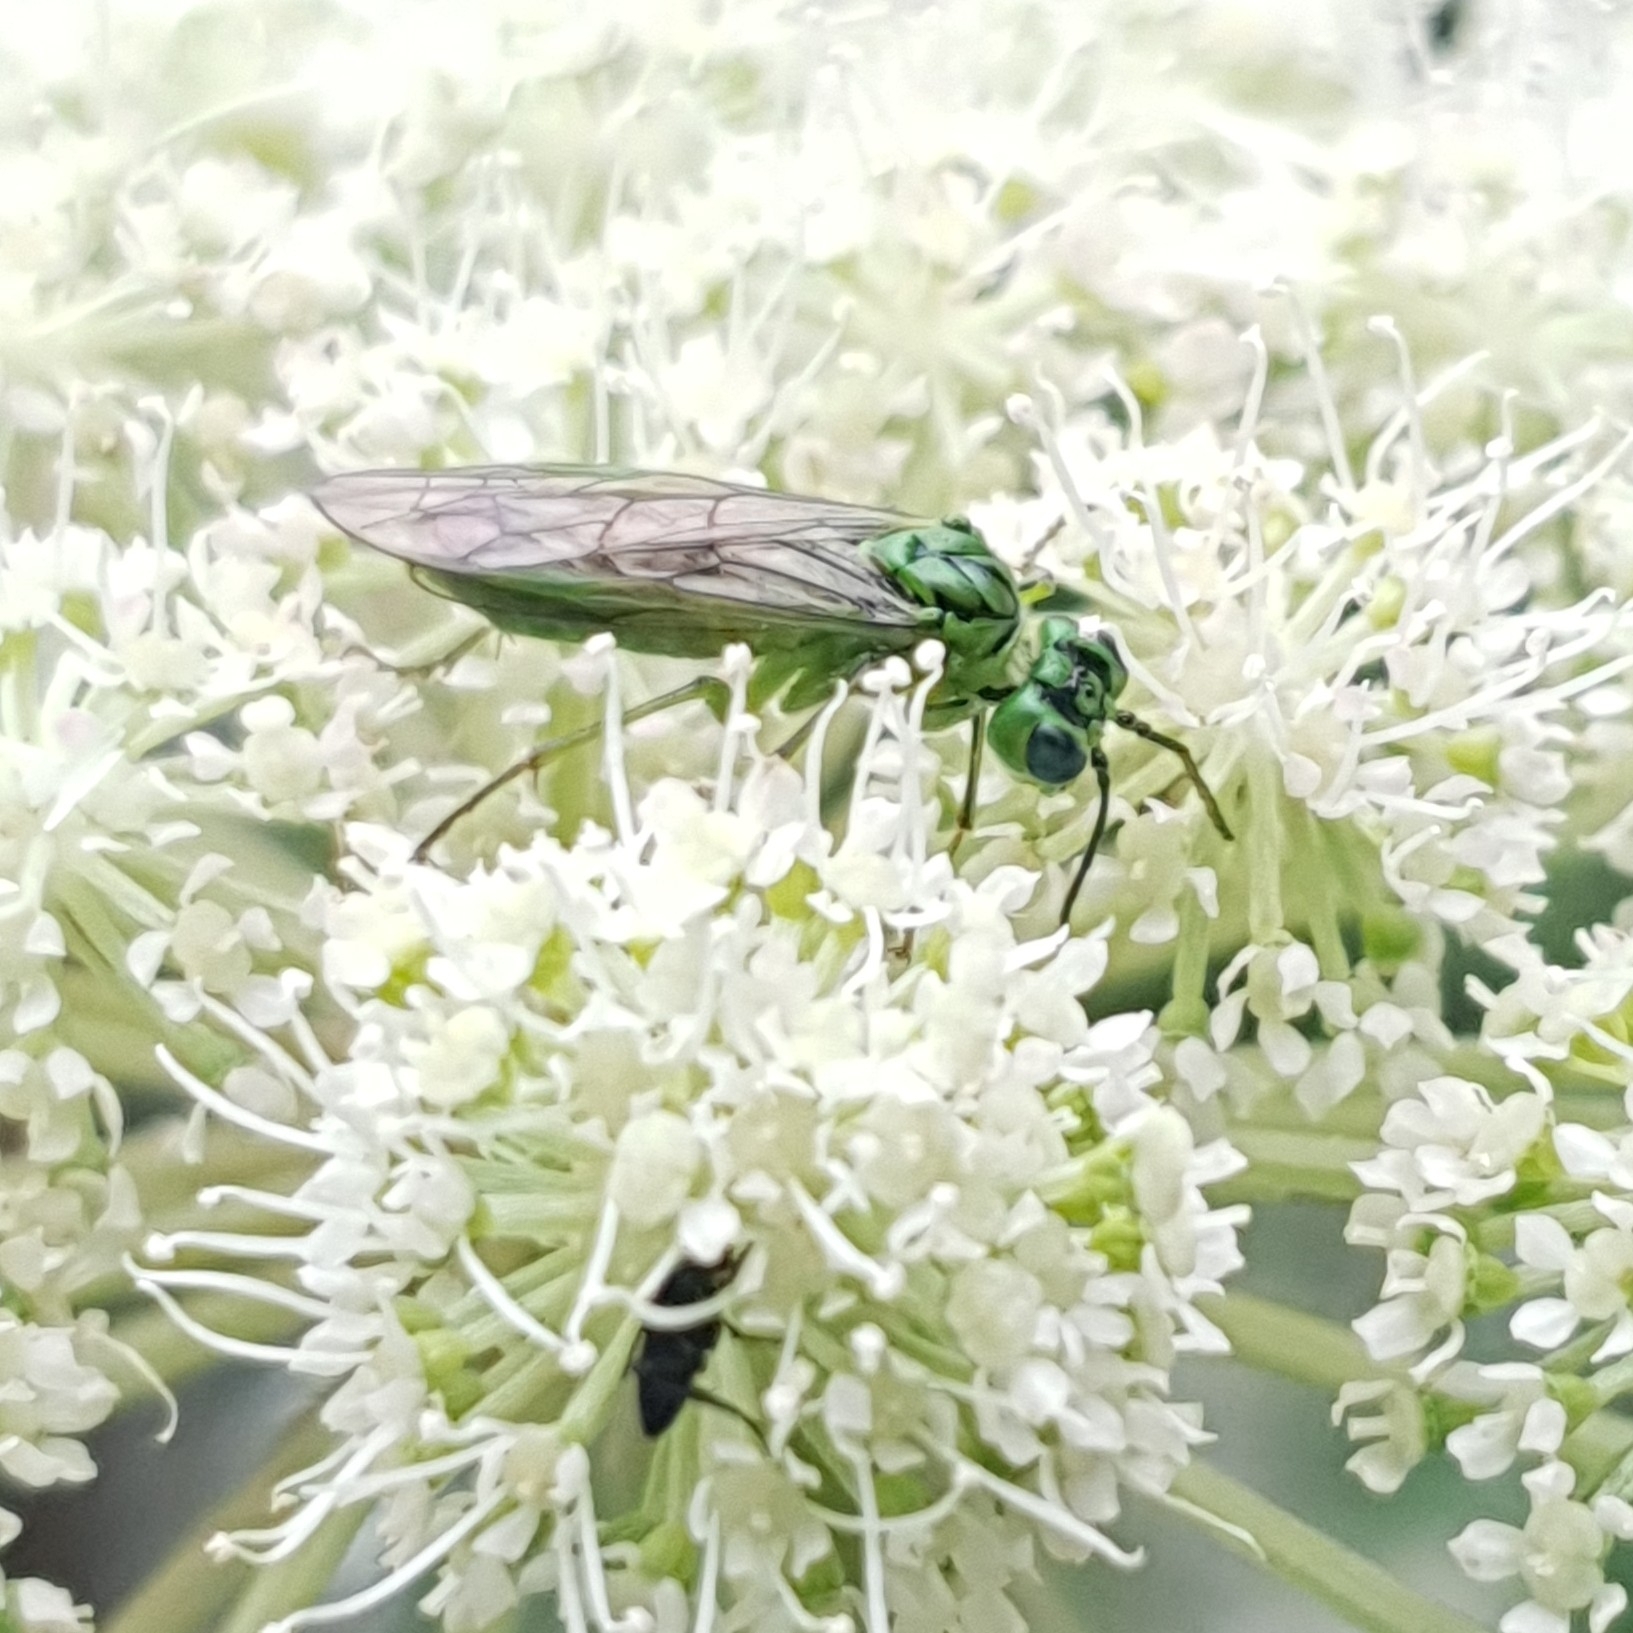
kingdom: Animalia
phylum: Arthropoda
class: Insecta
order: Hymenoptera
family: Tenthredinidae
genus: Tenthredo
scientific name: Tenthredo olivacea
